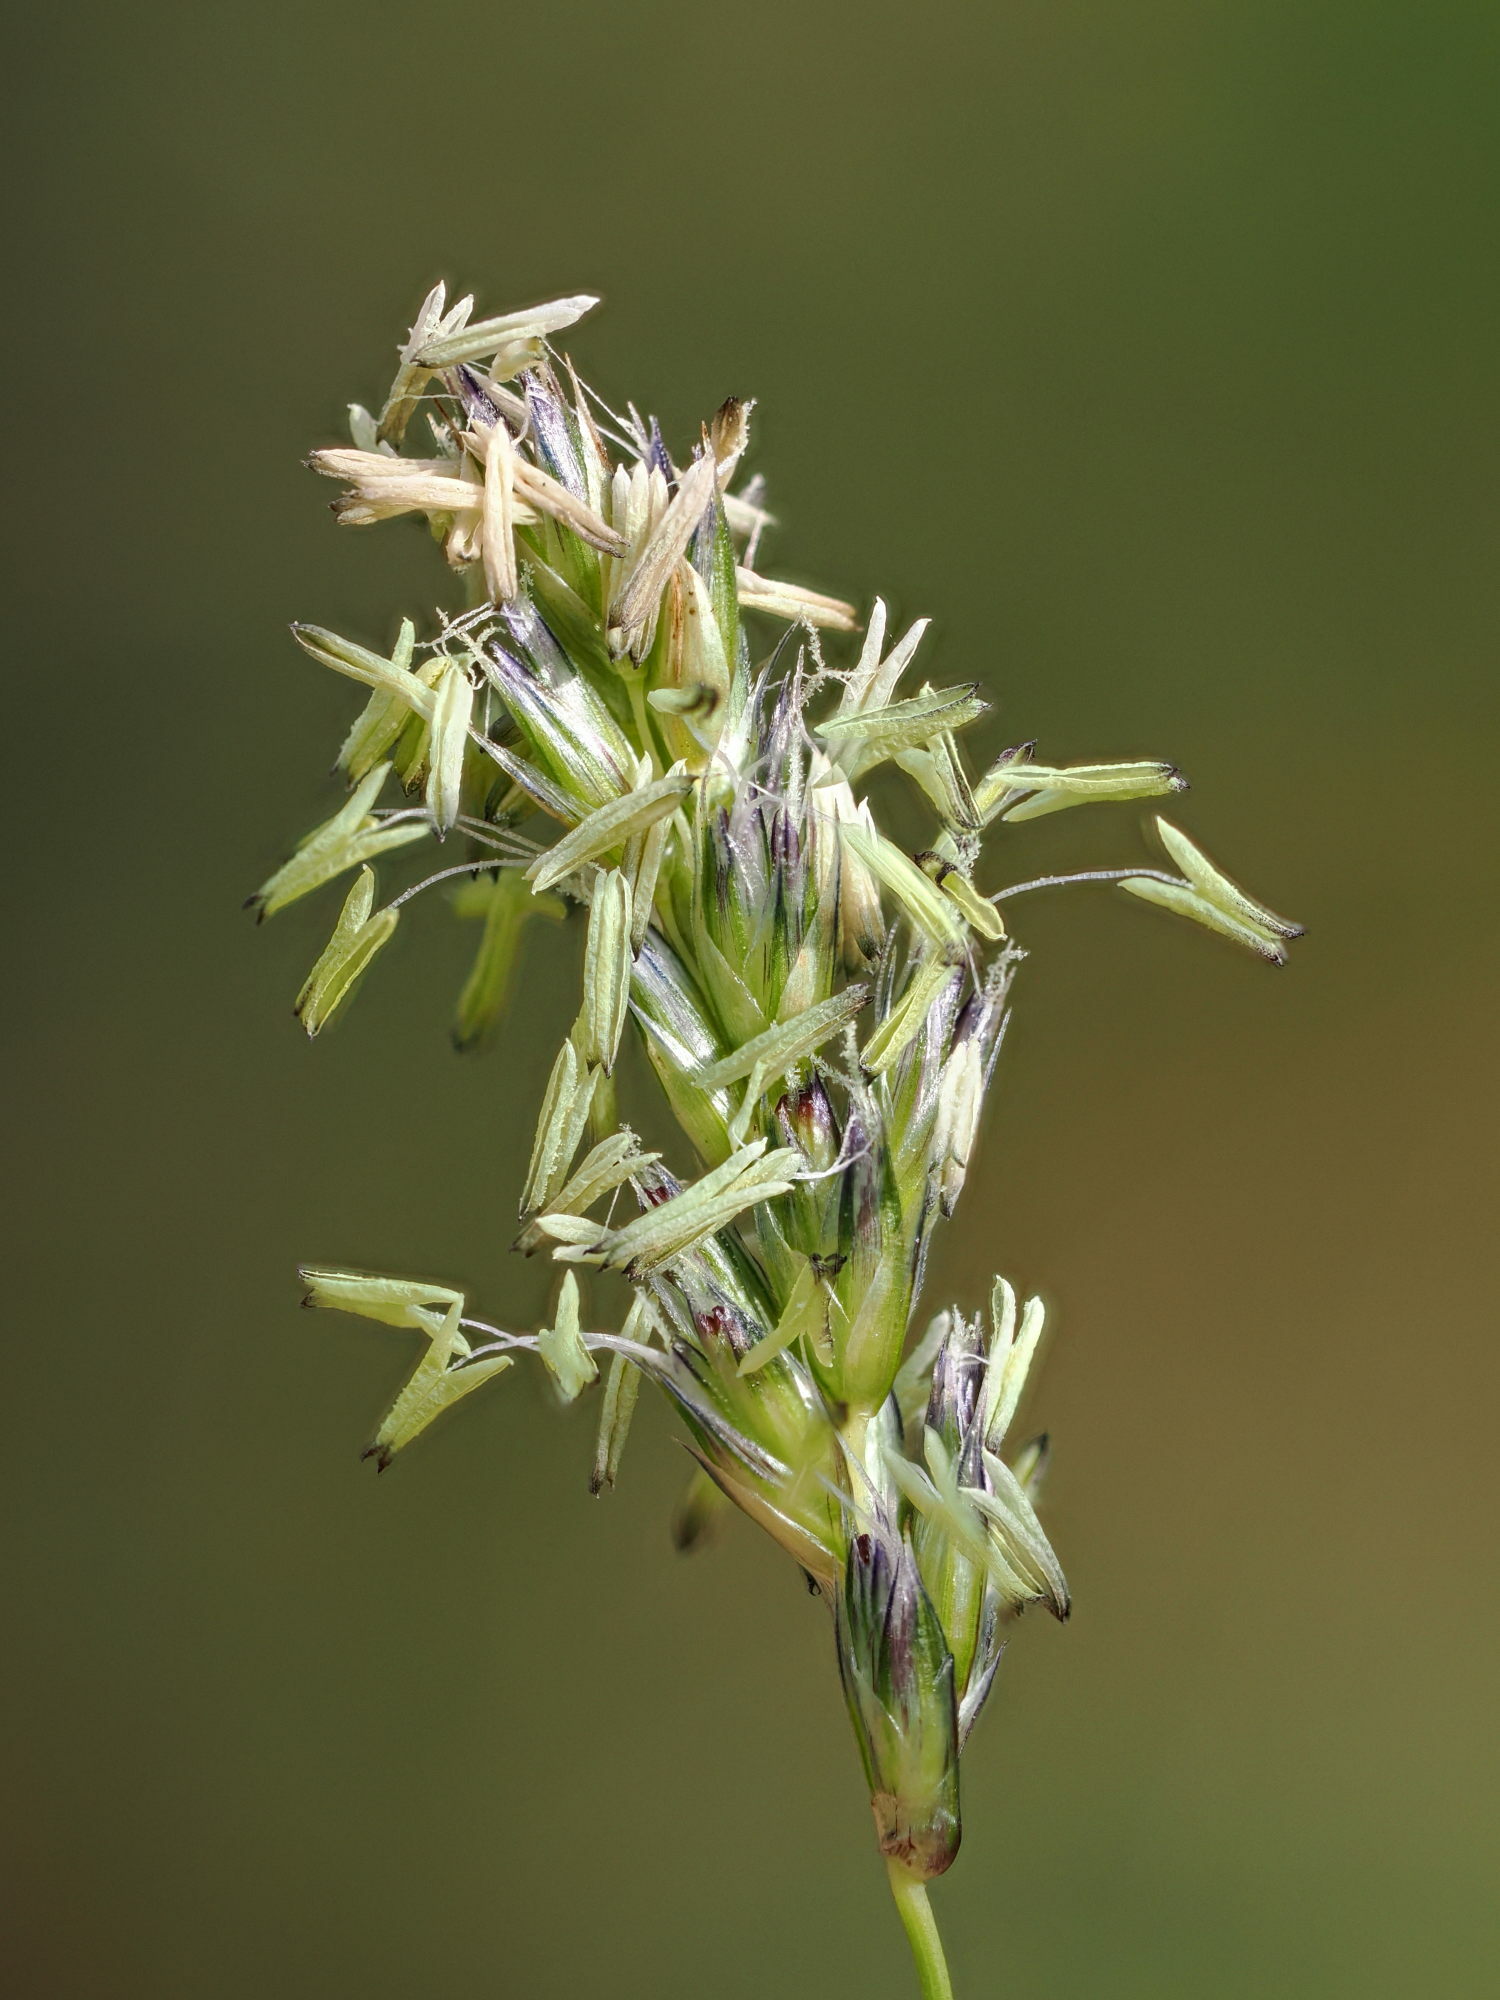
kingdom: Plantae
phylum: Tracheophyta
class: Liliopsida
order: Poales
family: Poaceae
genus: Sesleria
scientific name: Sesleria caerulea
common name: Blue moor-grass
